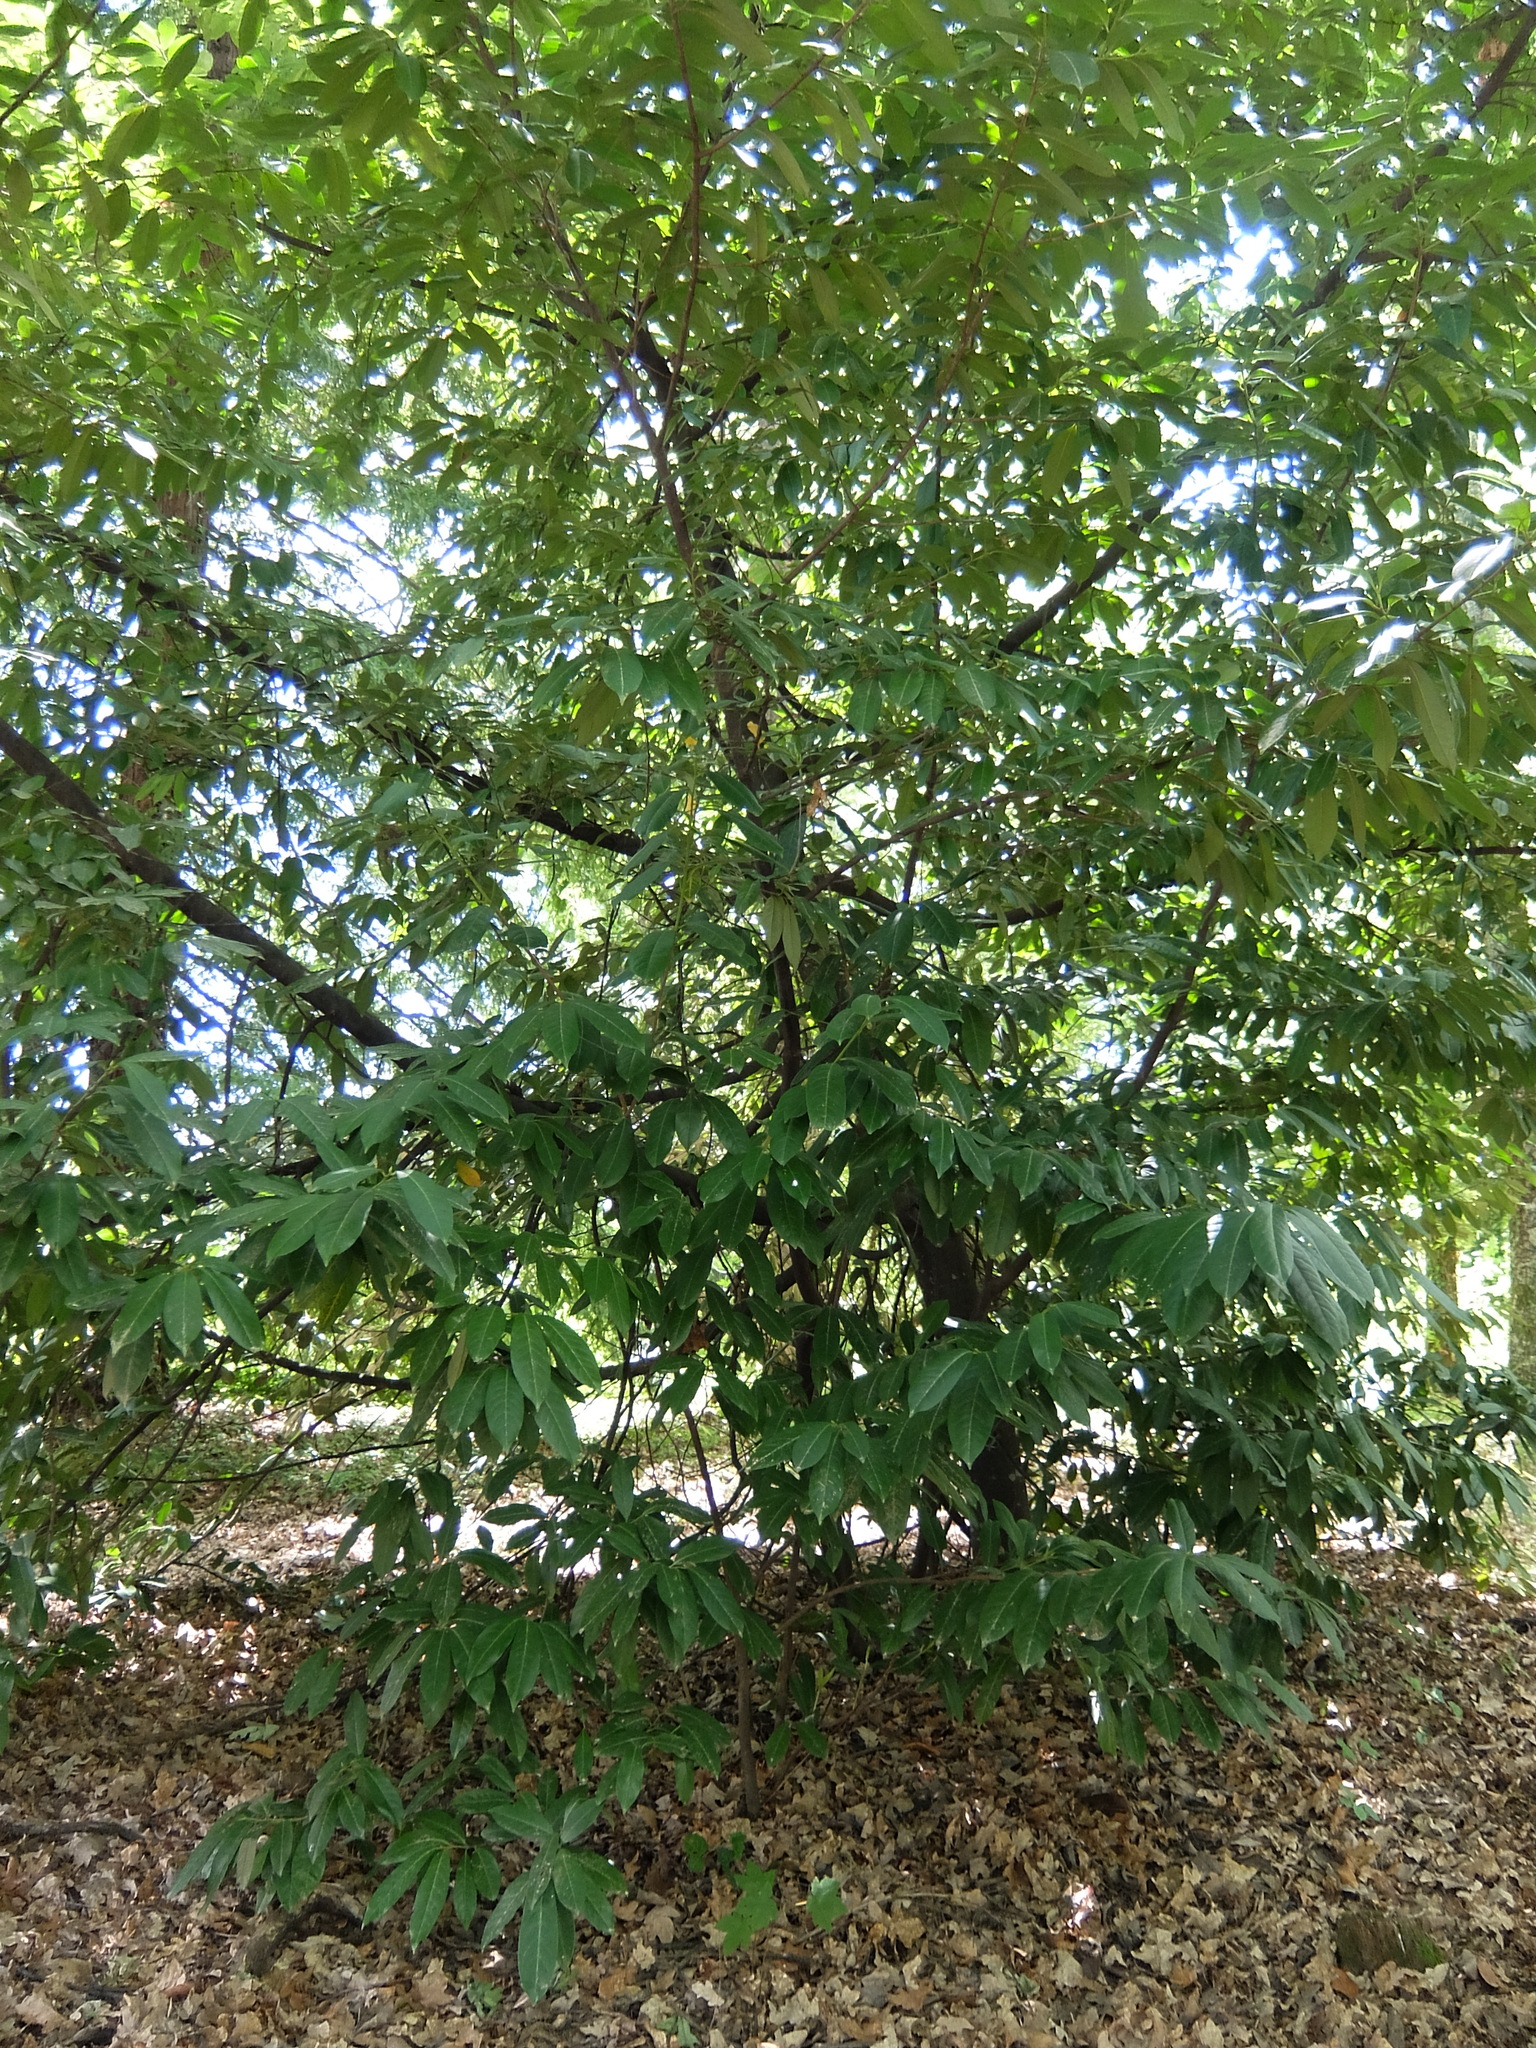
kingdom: Plantae
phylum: Tracheophyta
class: Magnoliopsida
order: Rosales
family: Rosaceae
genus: Prunus
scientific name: Prunus laurocerasus
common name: Cherry laurel
